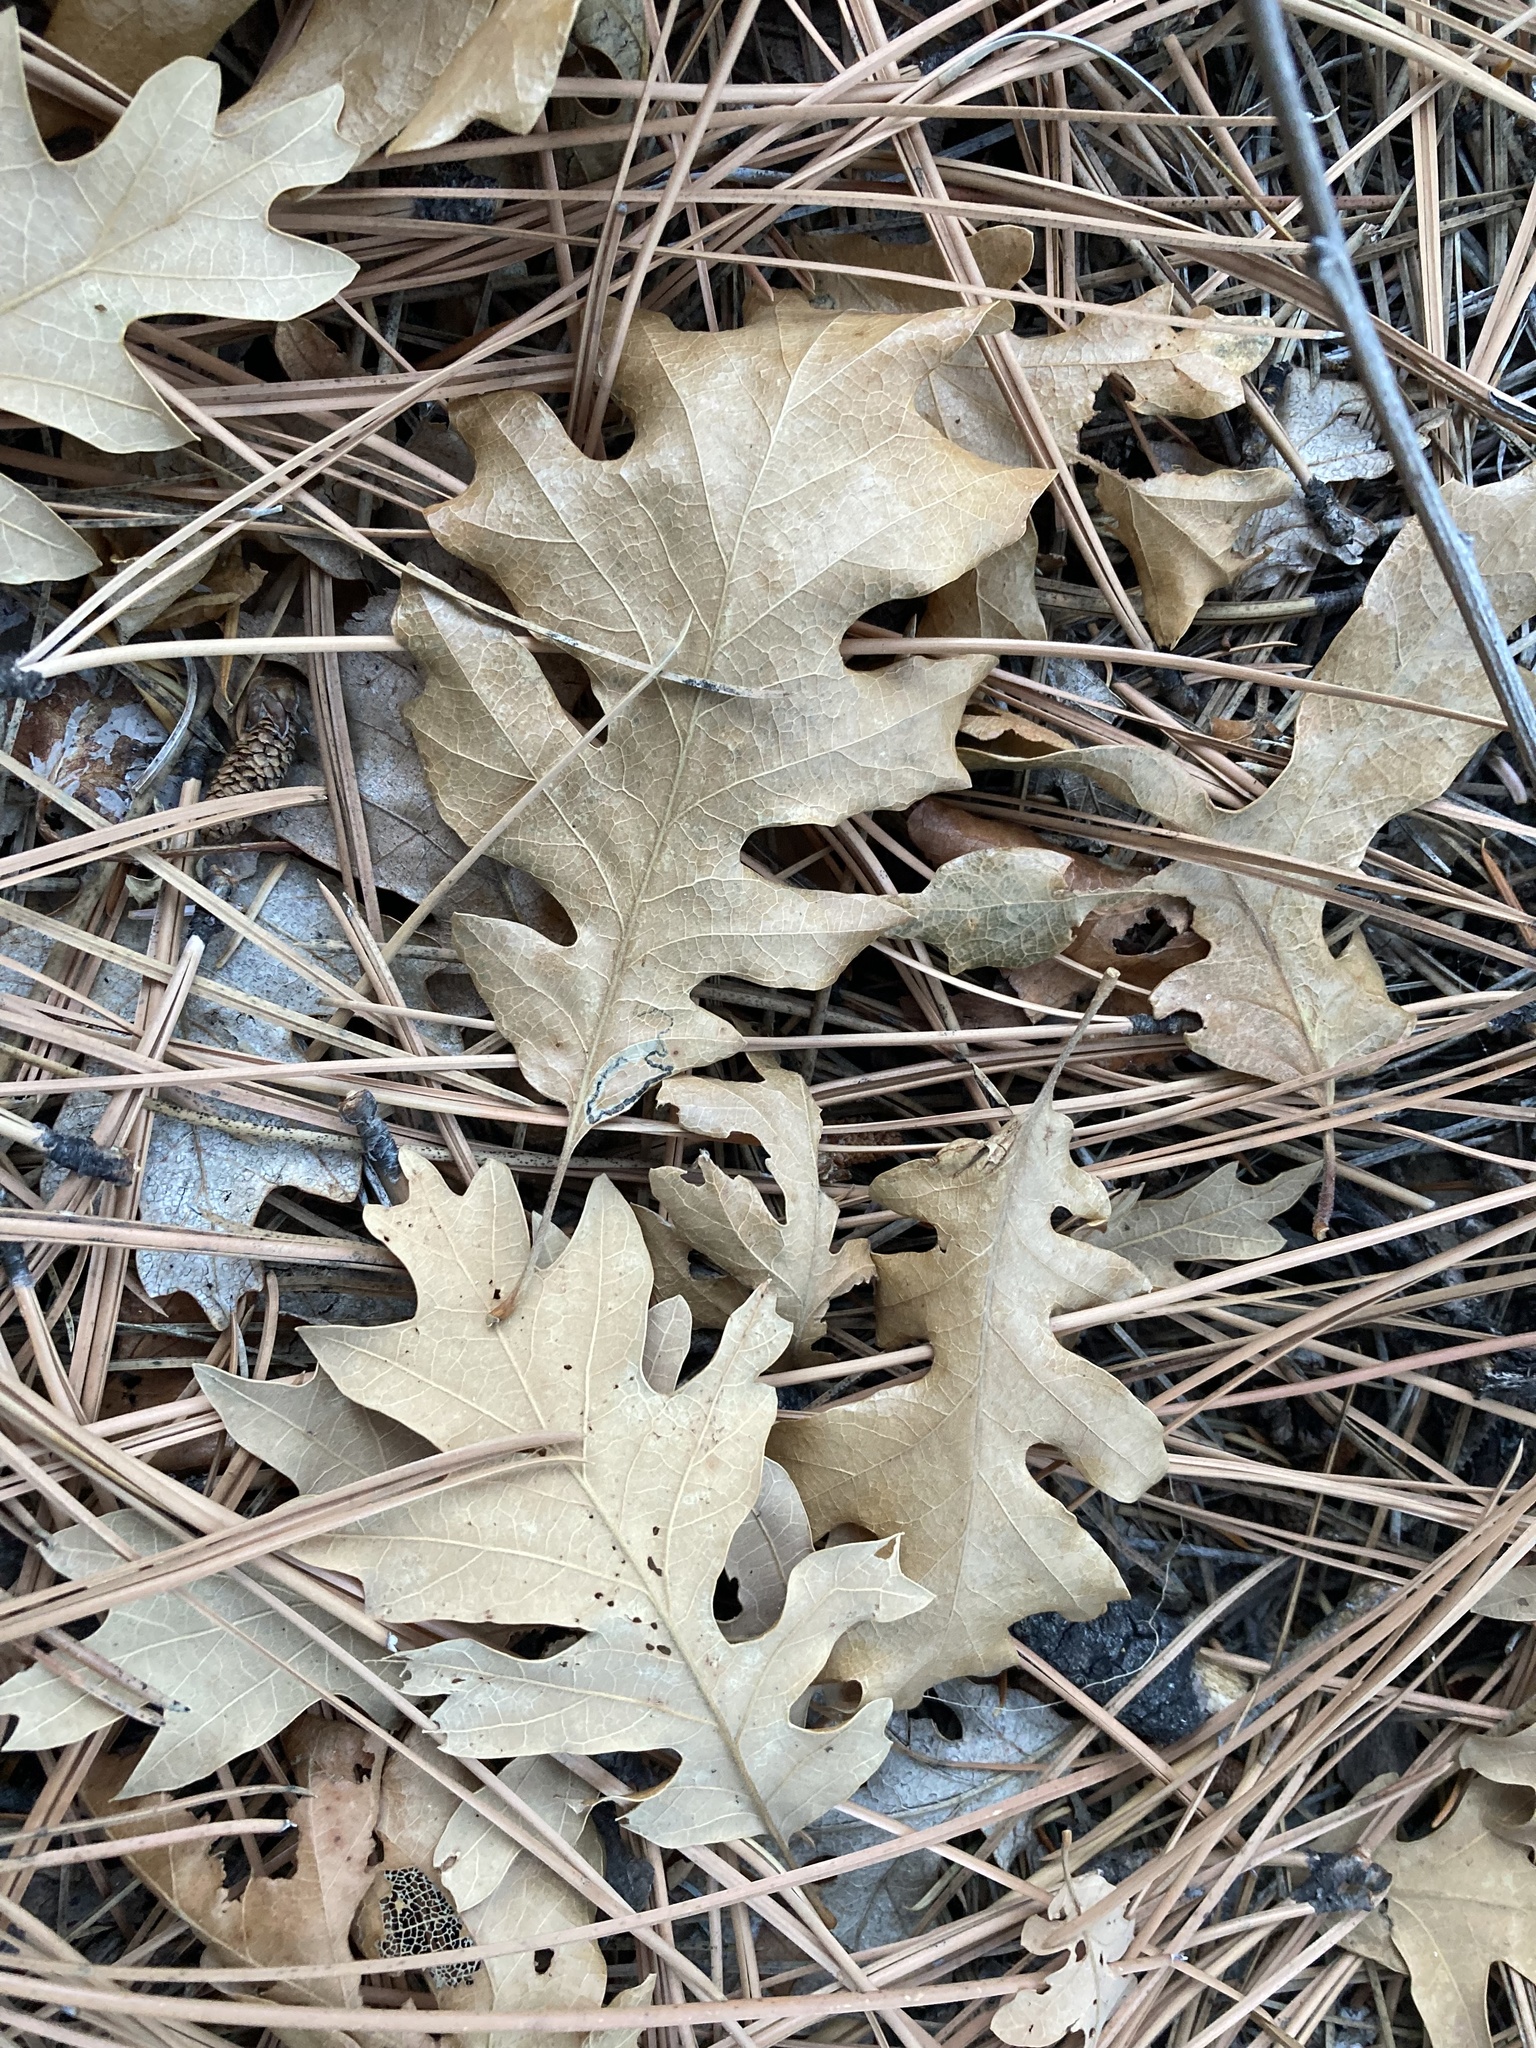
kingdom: Plantae
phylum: Tracheophyta
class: Magnoliopsida
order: Fagales
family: Fagaceae
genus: Quercus
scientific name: Quercus gambelii
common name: Gambel oak
